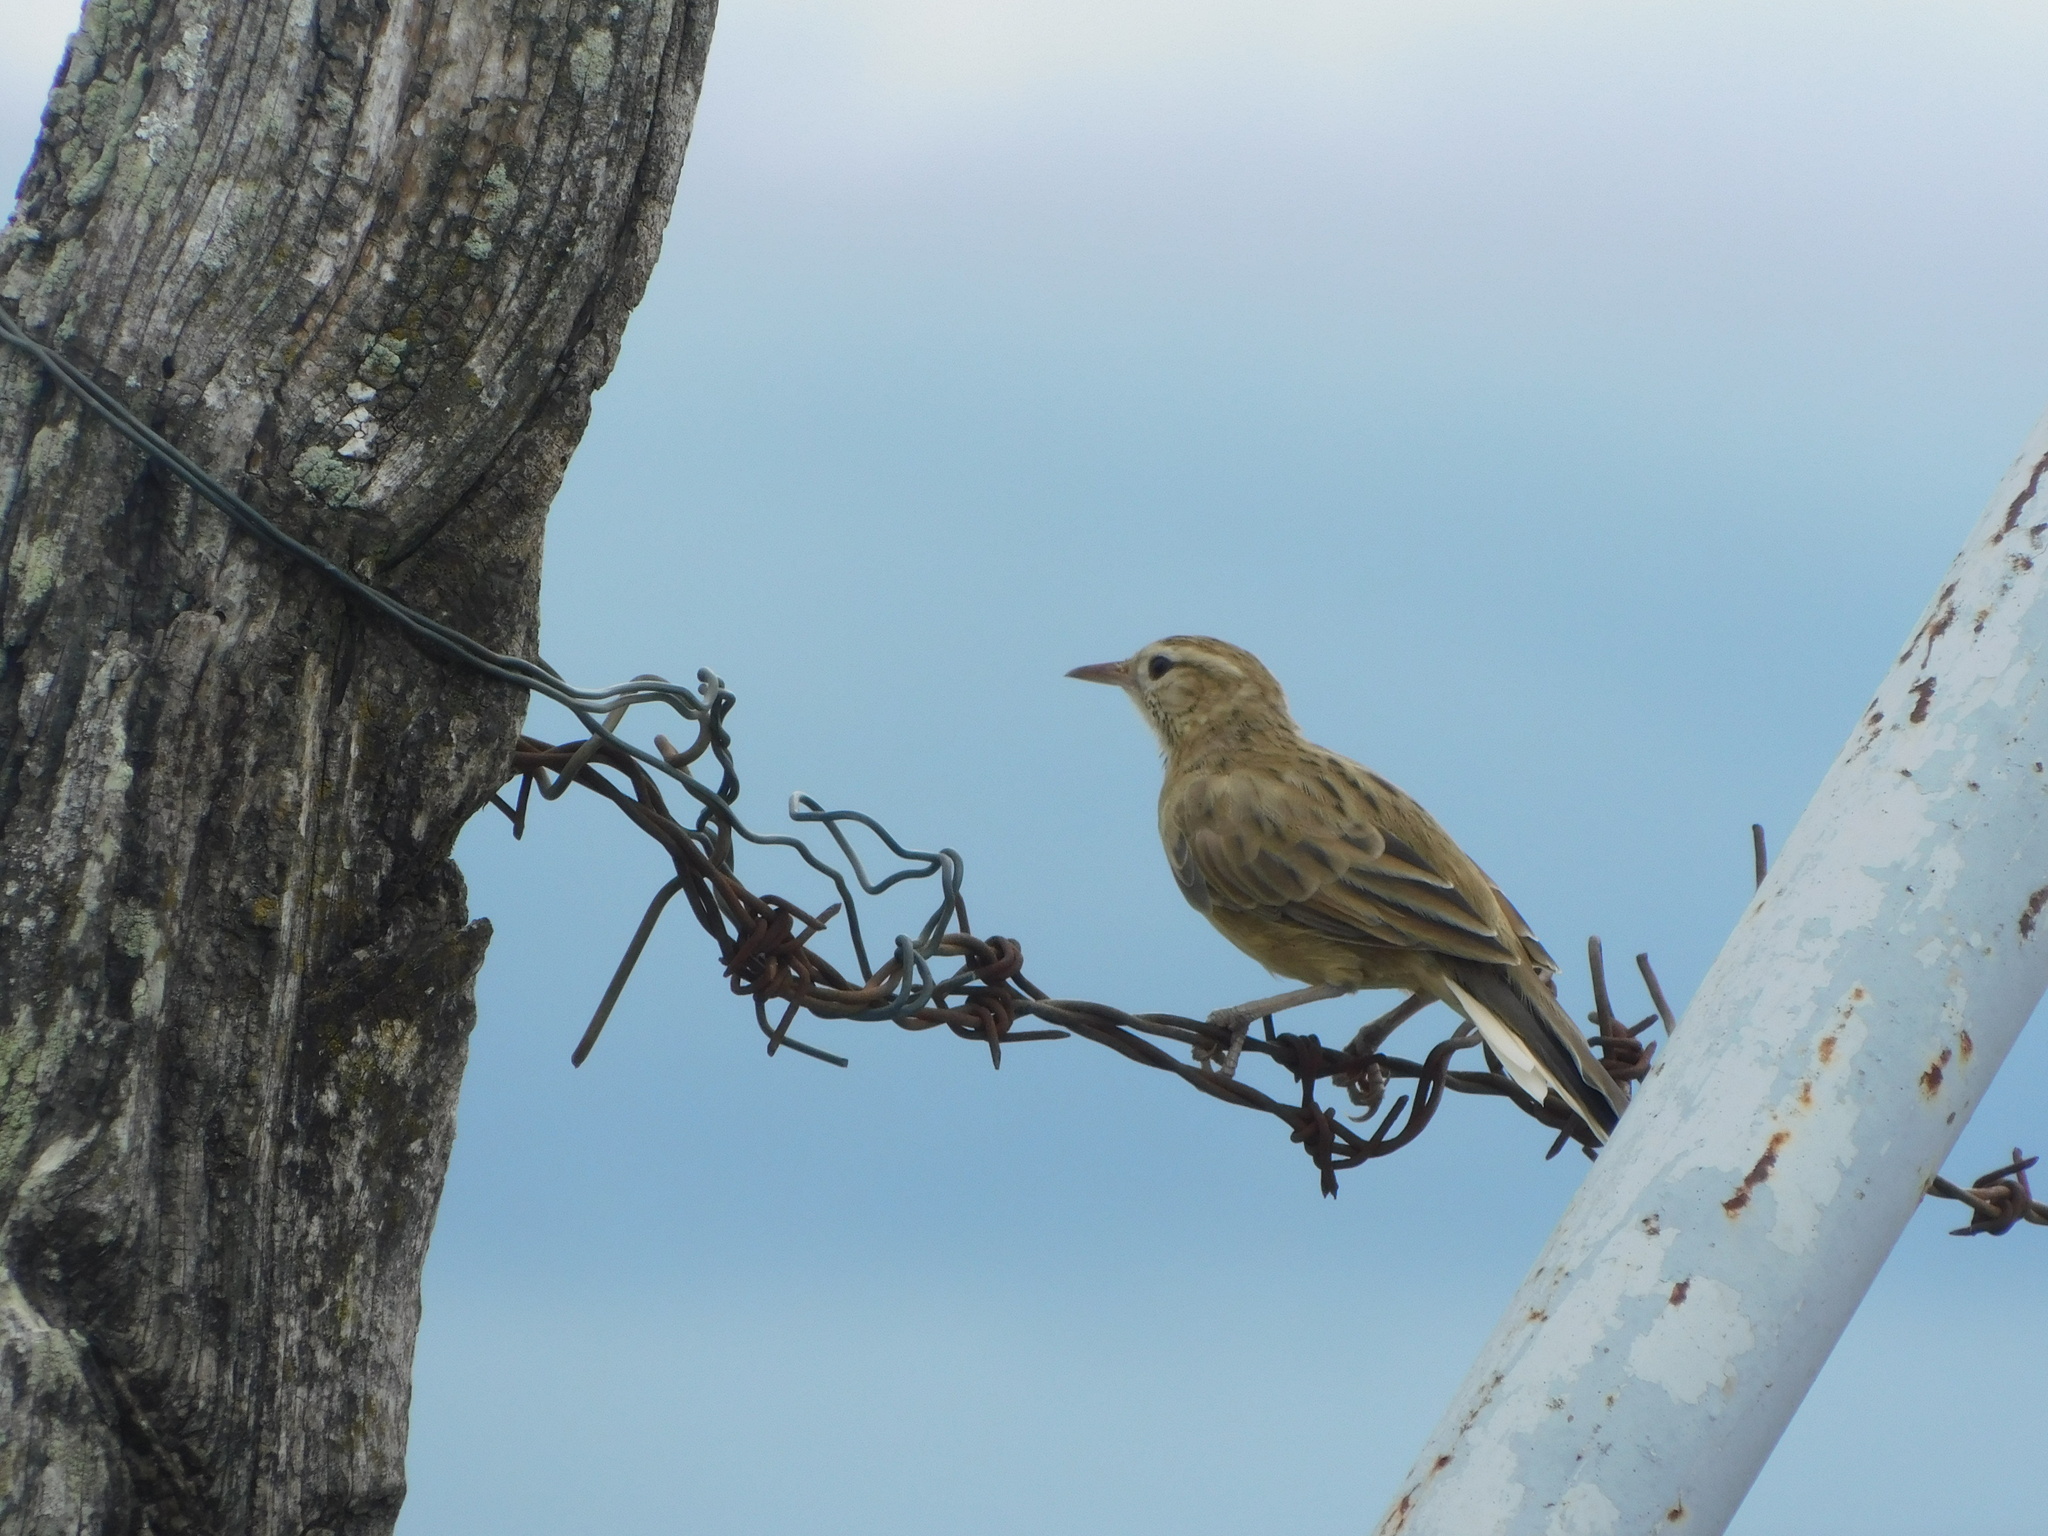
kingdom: Animalia
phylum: Chordata
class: Aves
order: Passeriformes
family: Furnariidae
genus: Anumbius
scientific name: Anumbius annumbi
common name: Firewood-gatherer
